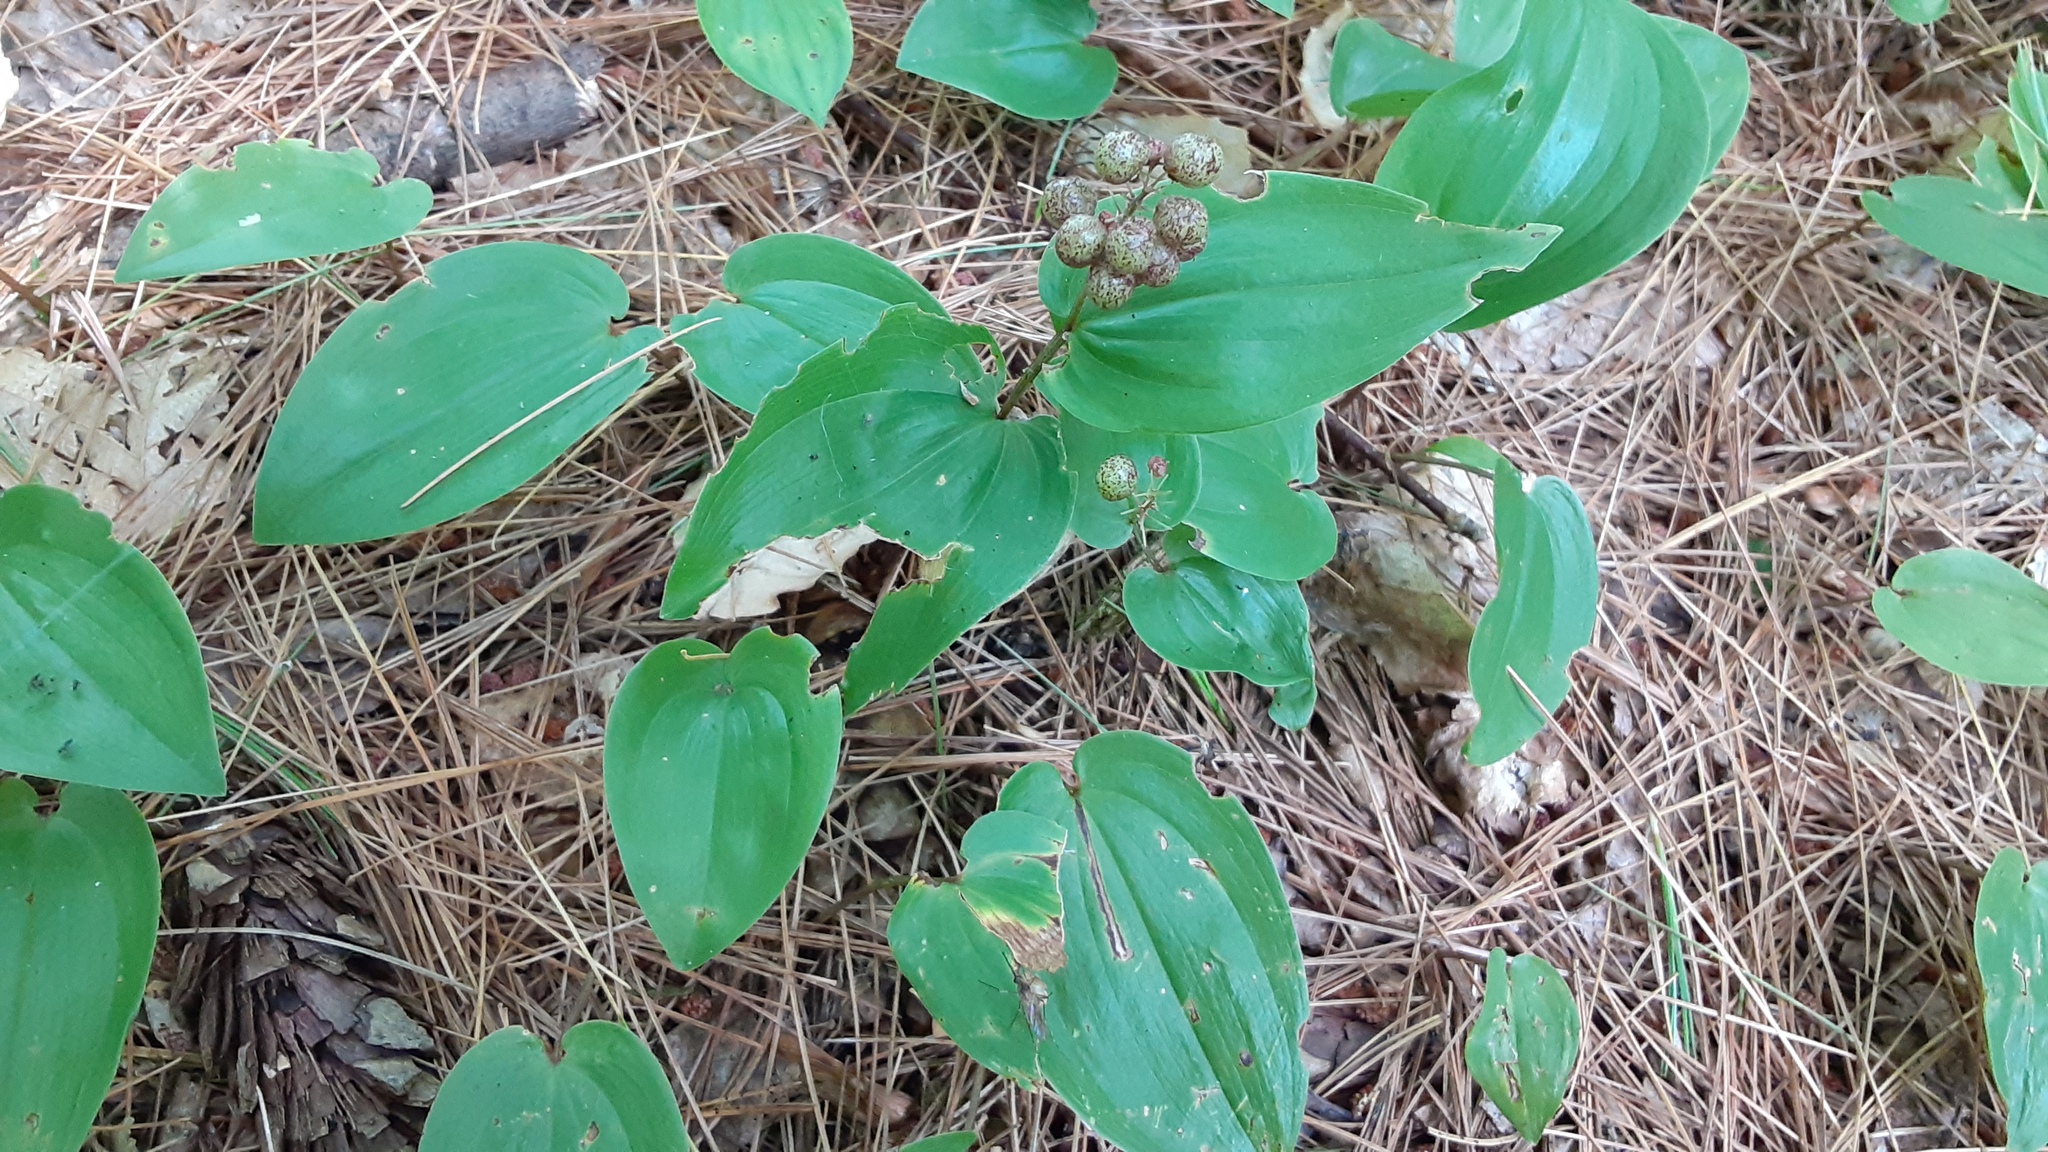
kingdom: Plantae
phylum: Tracheophyta
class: Liliopsida
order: Asparagales
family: Asparagaceae
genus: Maianthemum
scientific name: Maianthemum canadense
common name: False lily-of-the-valley
